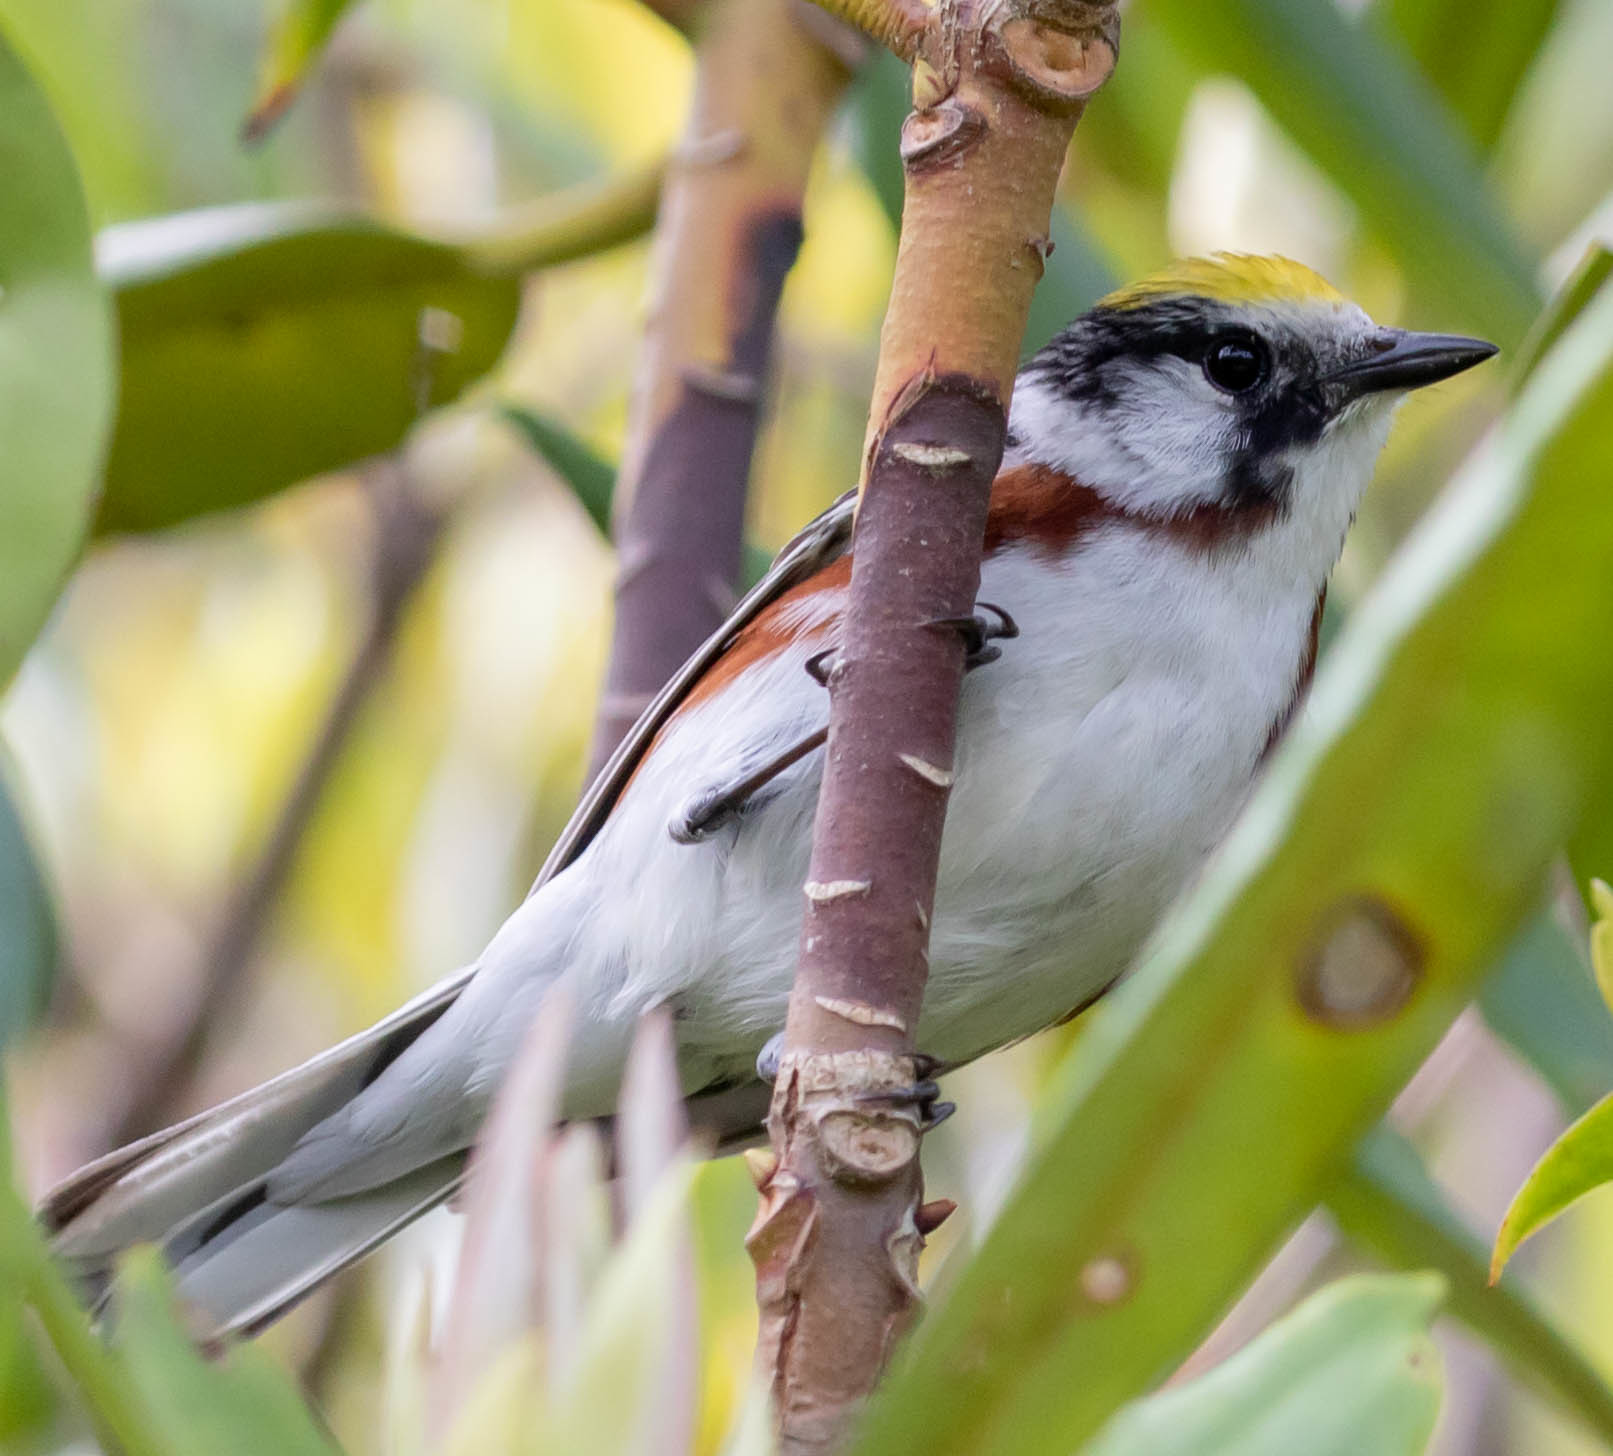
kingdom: Animalia
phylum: Chordata
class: Aves
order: Passeriformes
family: Parulidae
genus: Setophaga
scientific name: Setophaga pensylvanica
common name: Chestnut-sided warbler
